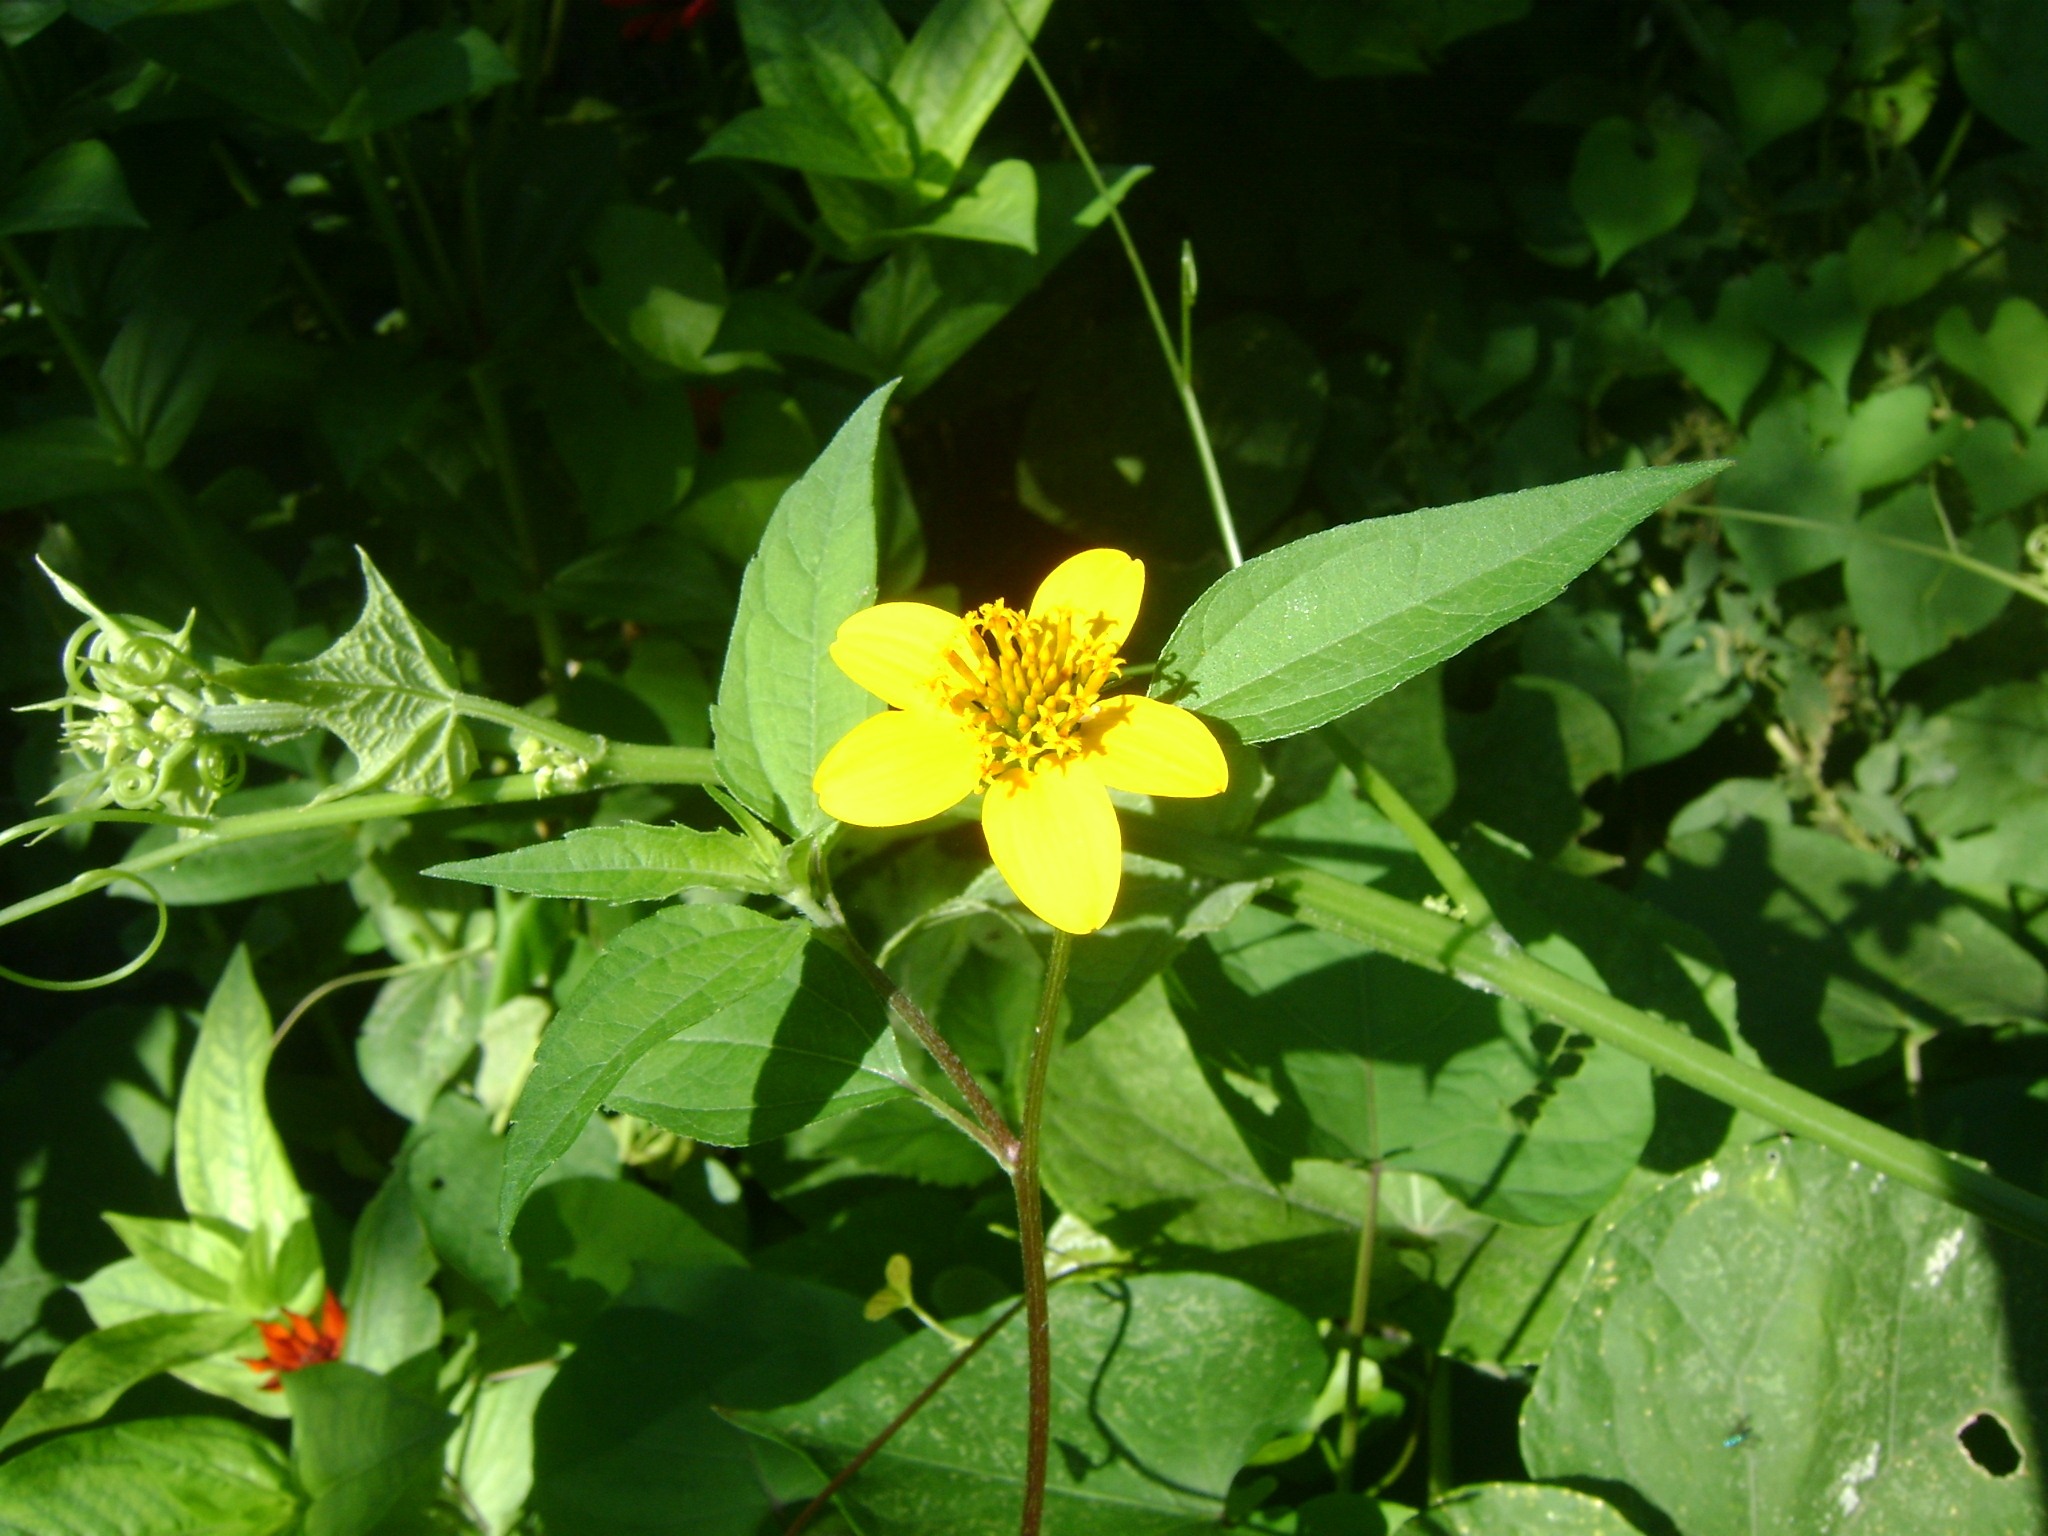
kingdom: Plantae
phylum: Tracheophyta
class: Magnoliopsida
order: Asterales
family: Asteraceae
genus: Sclerocarpus
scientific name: Sclerocarpus uniserialis
